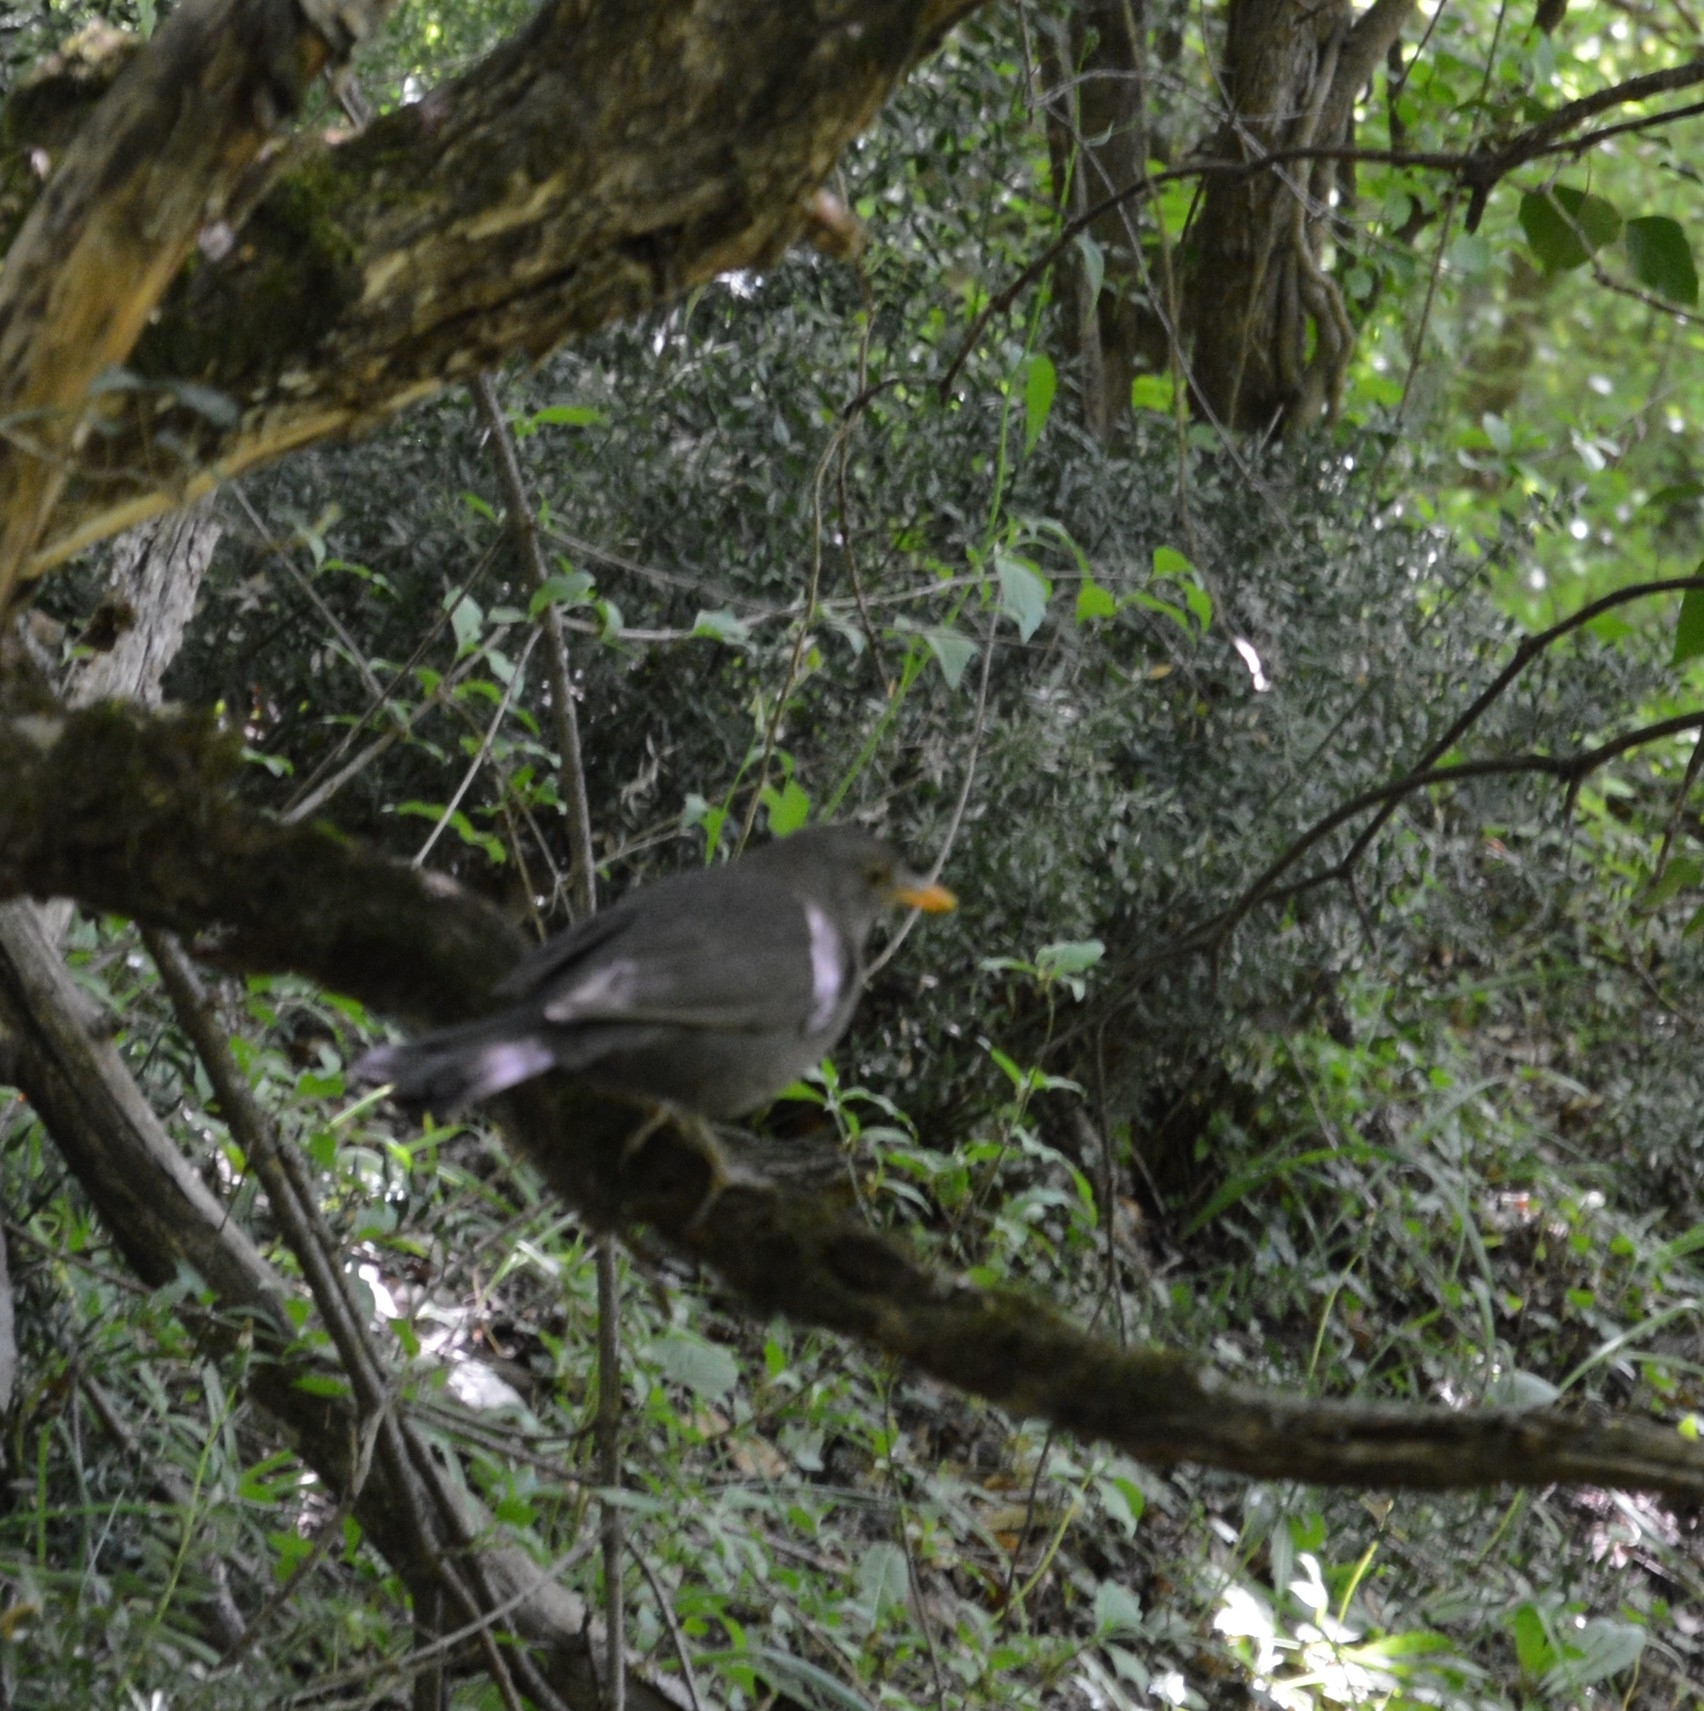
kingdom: Animalia
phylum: Chordata
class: Aves
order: Passeriformes
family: Turdidae
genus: Turdus
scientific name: Turdus merula
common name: Common blackbird
